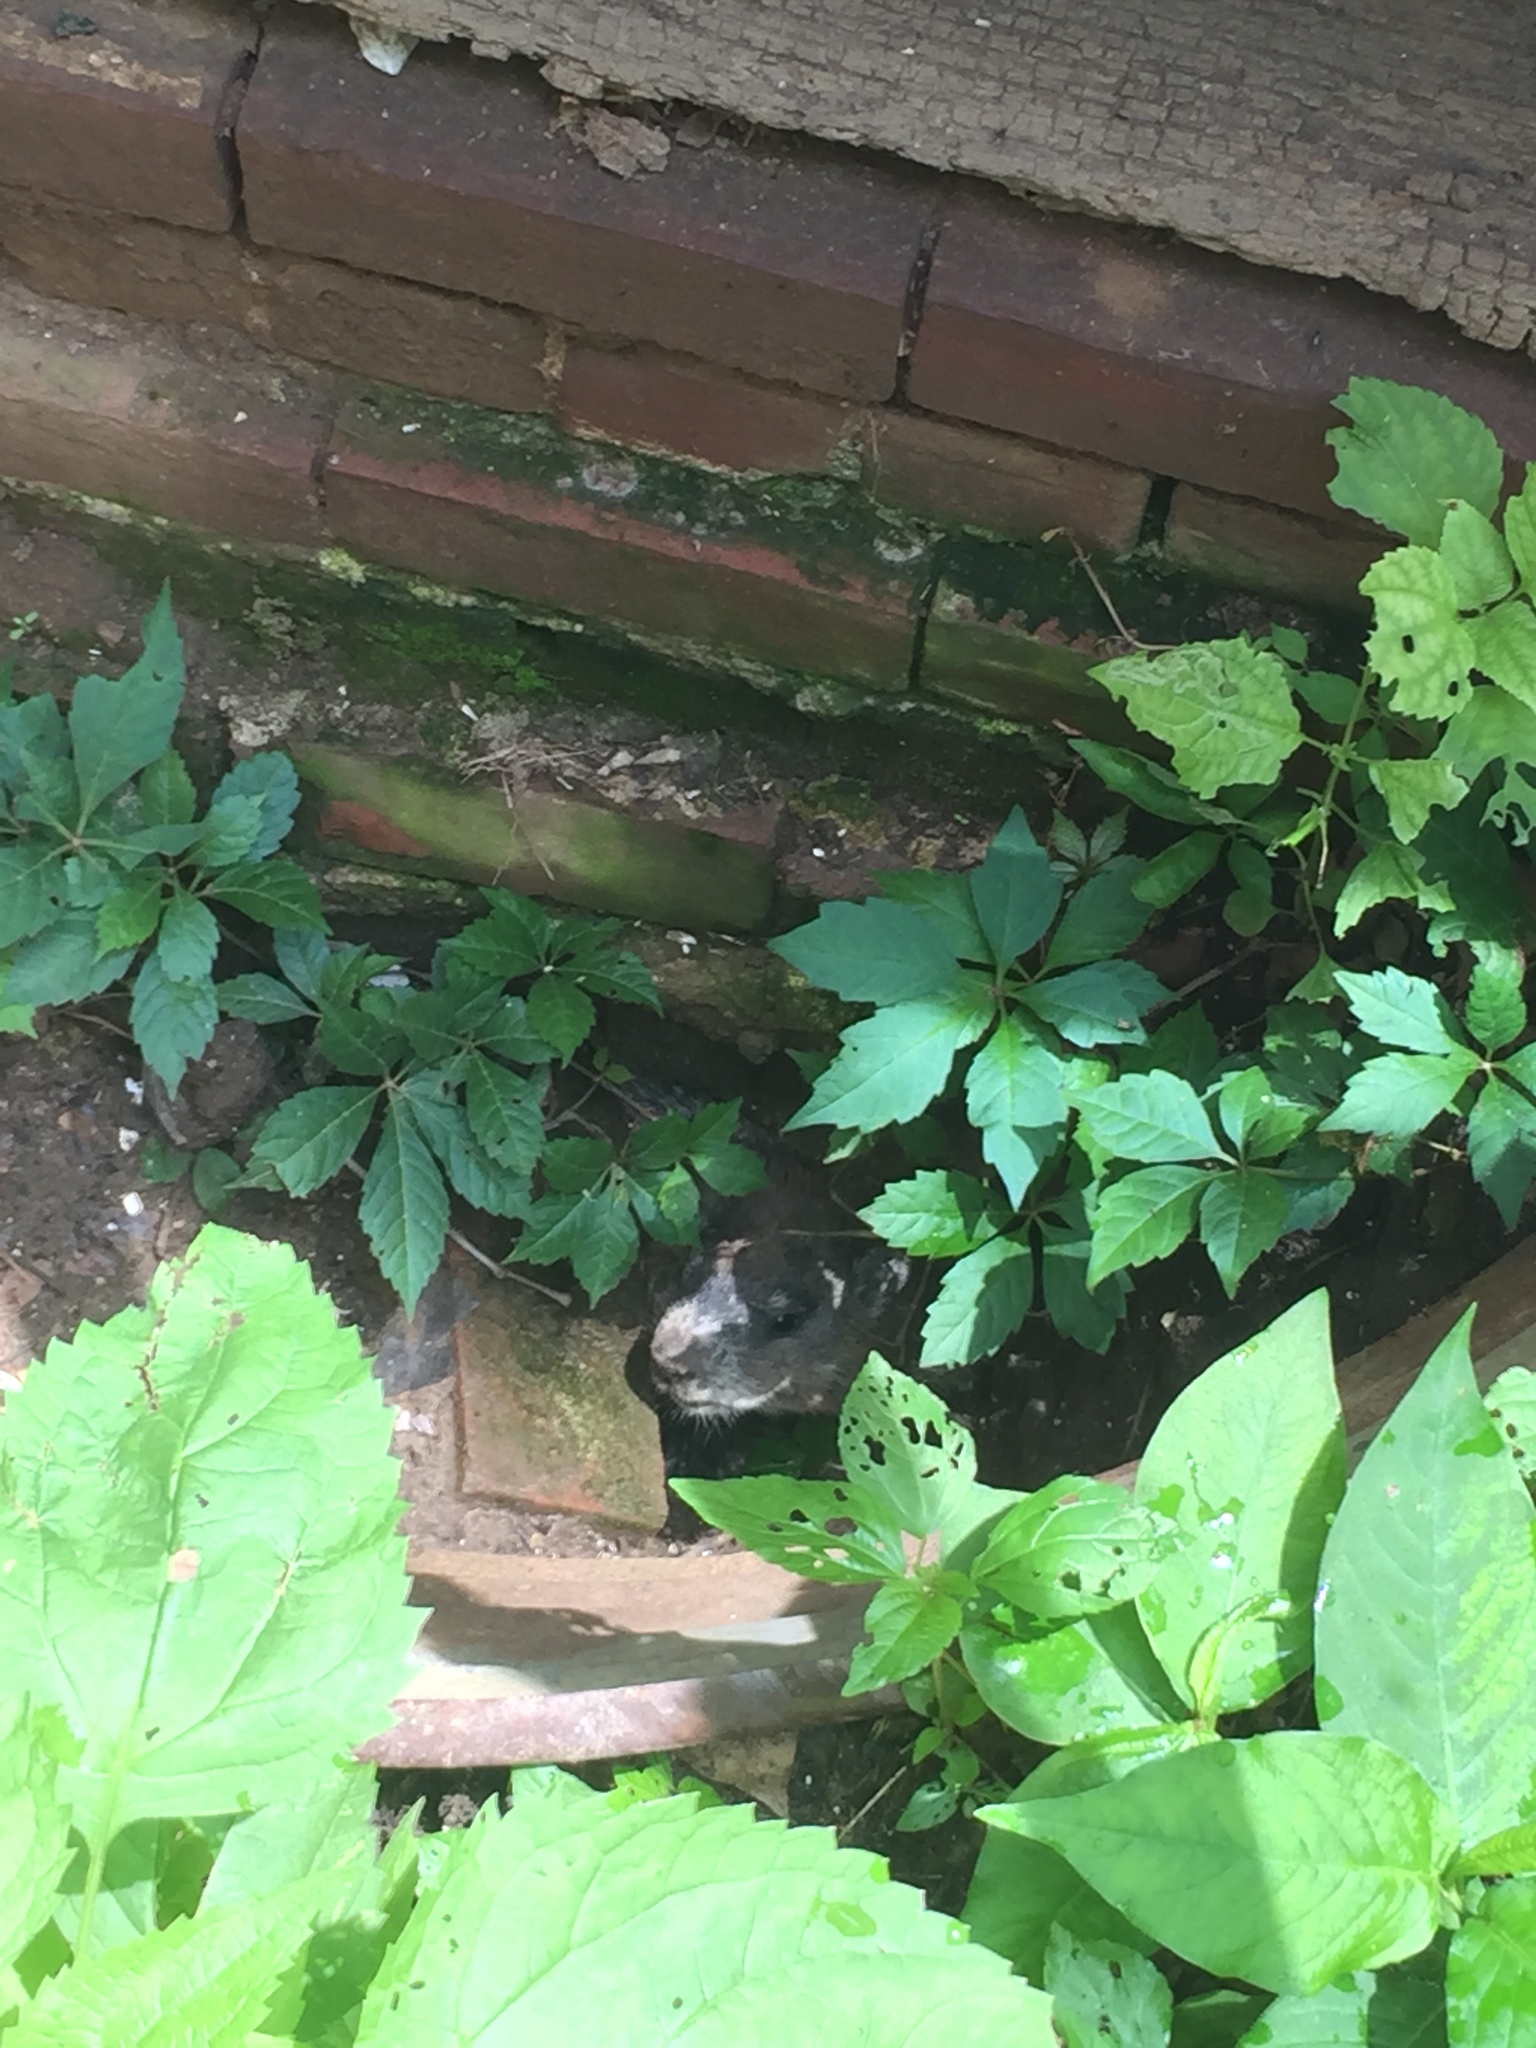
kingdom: Animalia
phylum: Chordata
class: Mammalia
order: Rodentia
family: Sciuridae
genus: Marmota
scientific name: Marmota monax
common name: Groundhog
